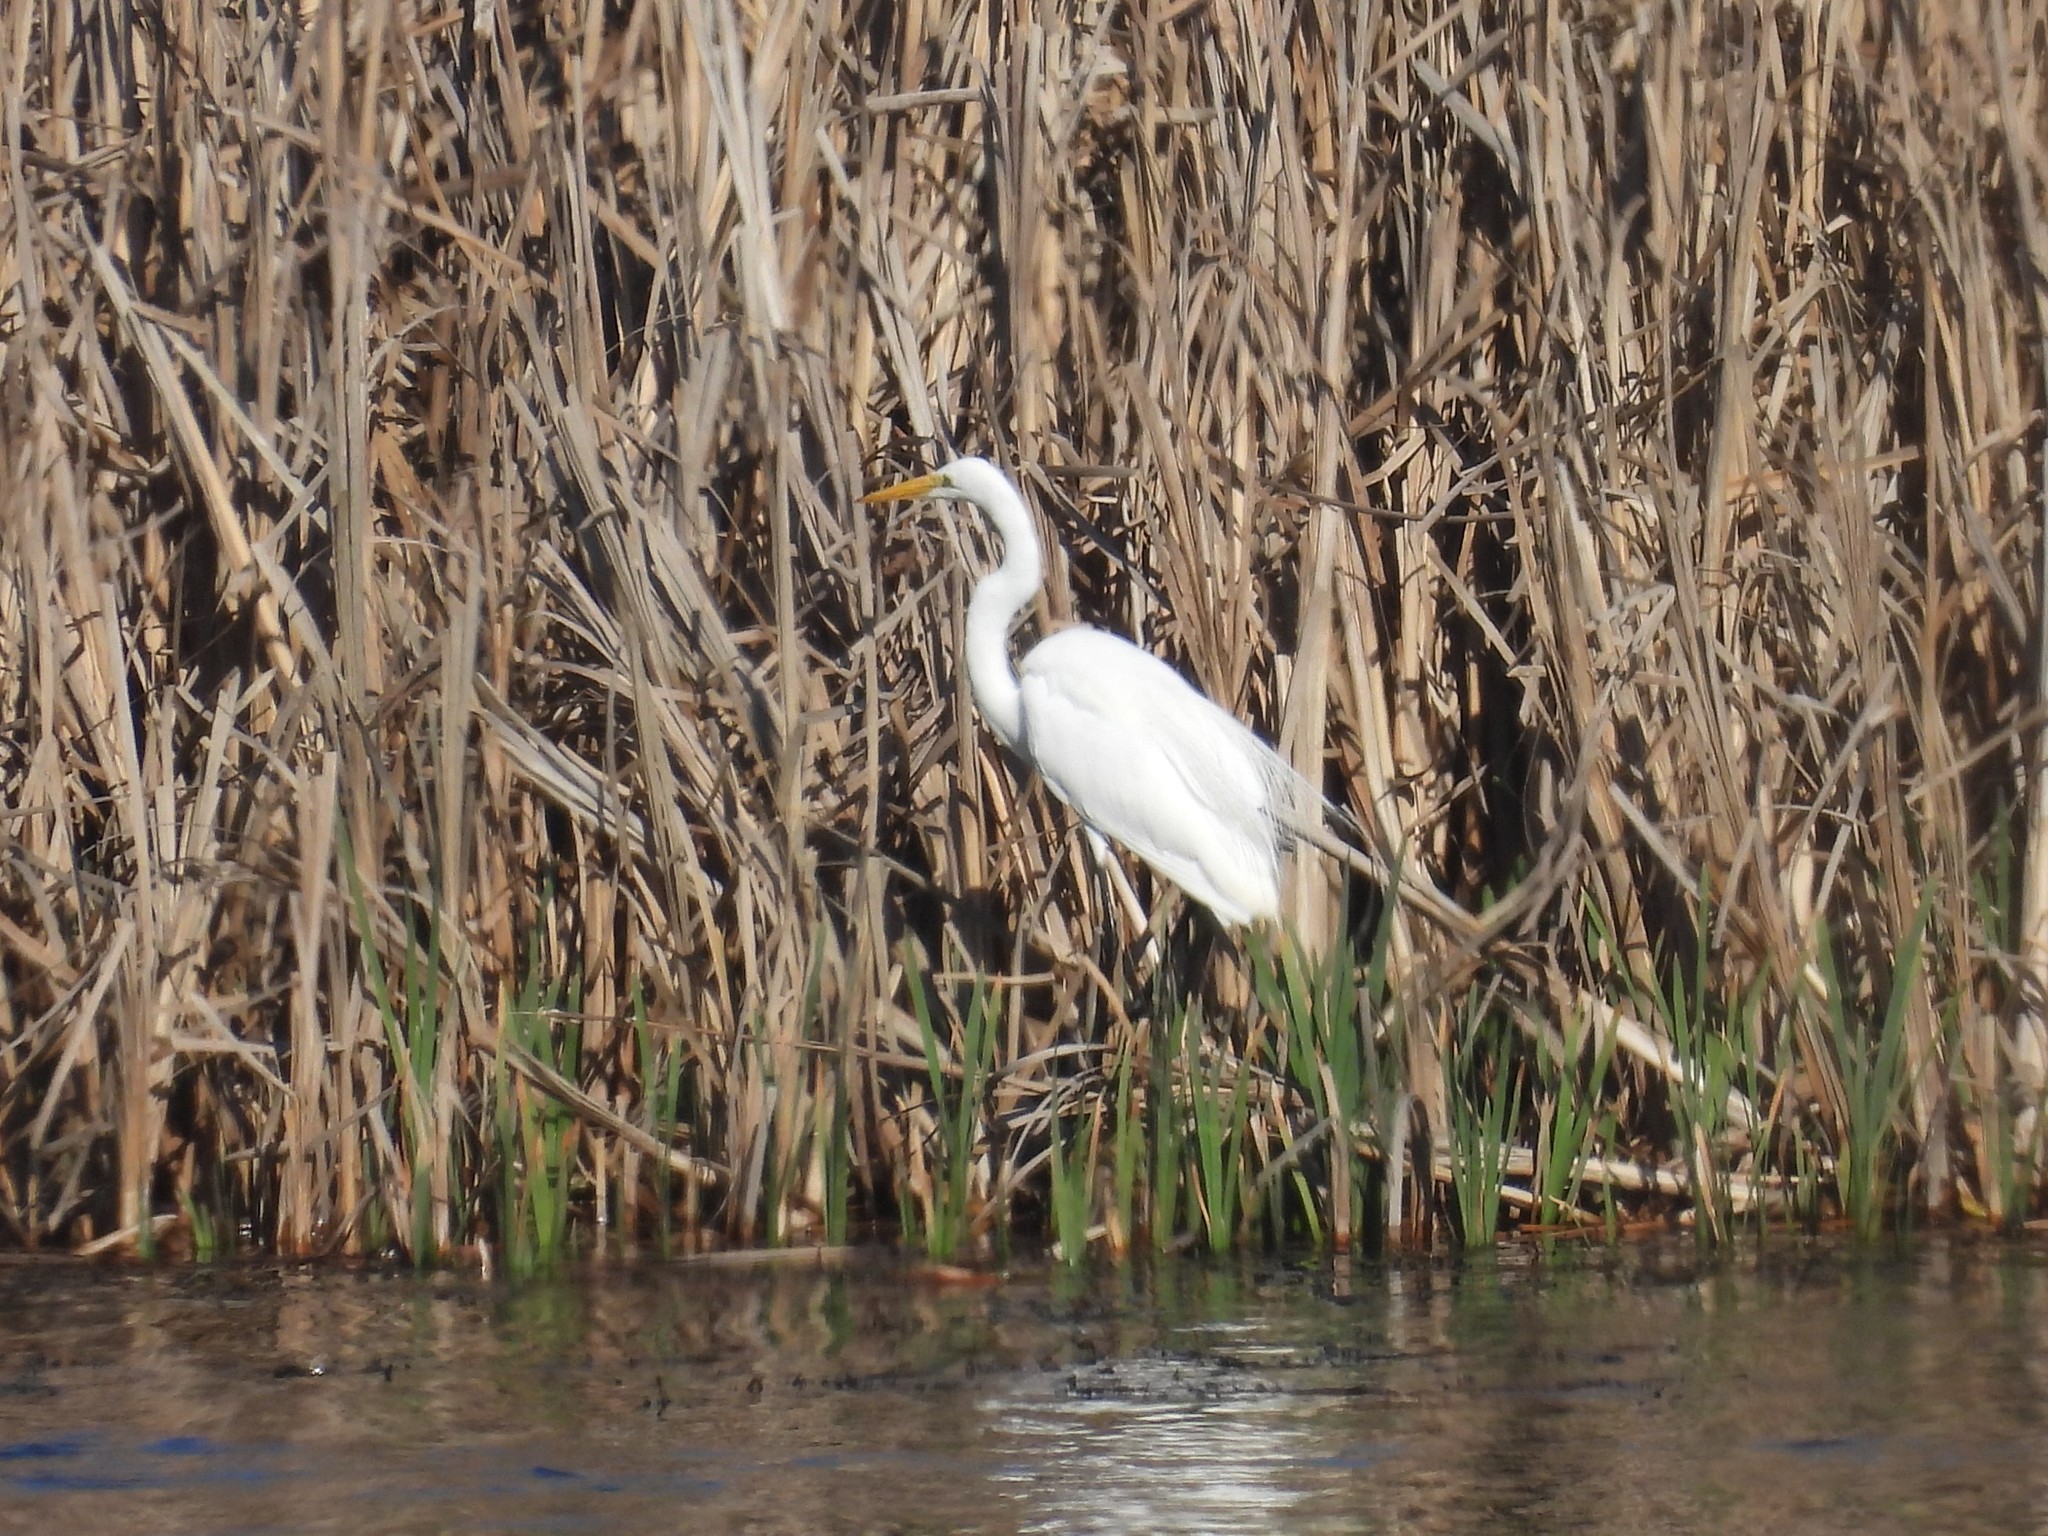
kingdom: Animalia
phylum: Chordata
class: Aves
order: Pelecaniformes
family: Ardeidae
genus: Ardea
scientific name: Ardea alba
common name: Great egret
